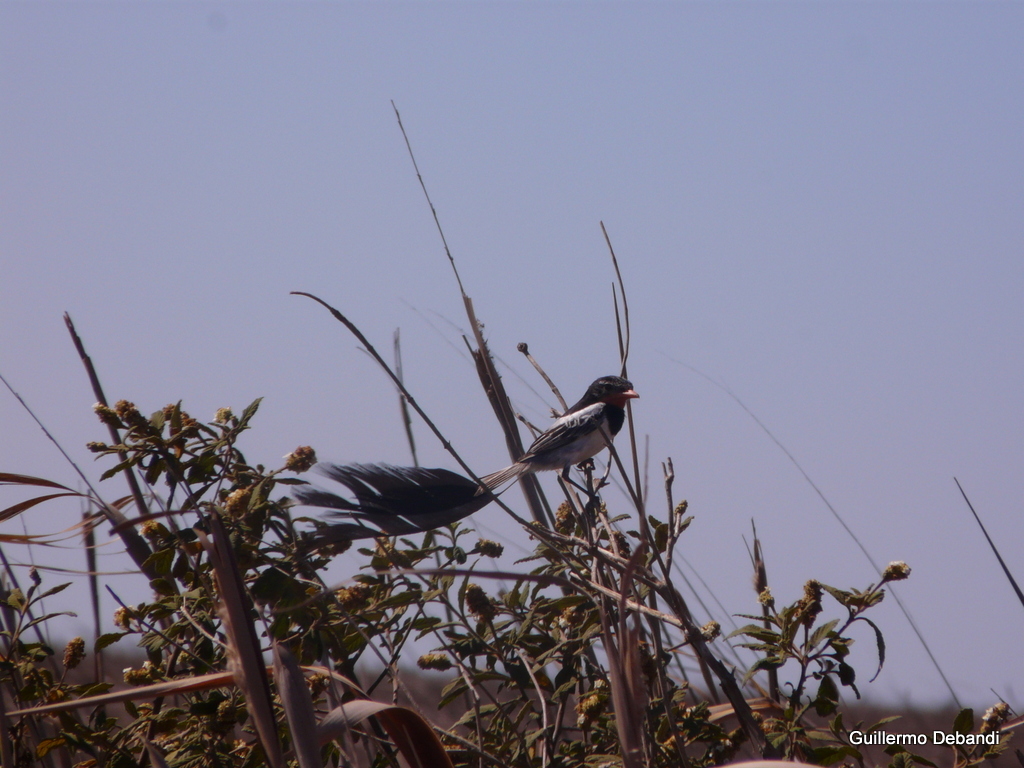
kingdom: Animalia
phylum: Chordata
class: Aves
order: Passeriformes
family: Tyrannidae
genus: Alectrurus
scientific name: Alectrurus risora
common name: Strange-tailed tyrant
